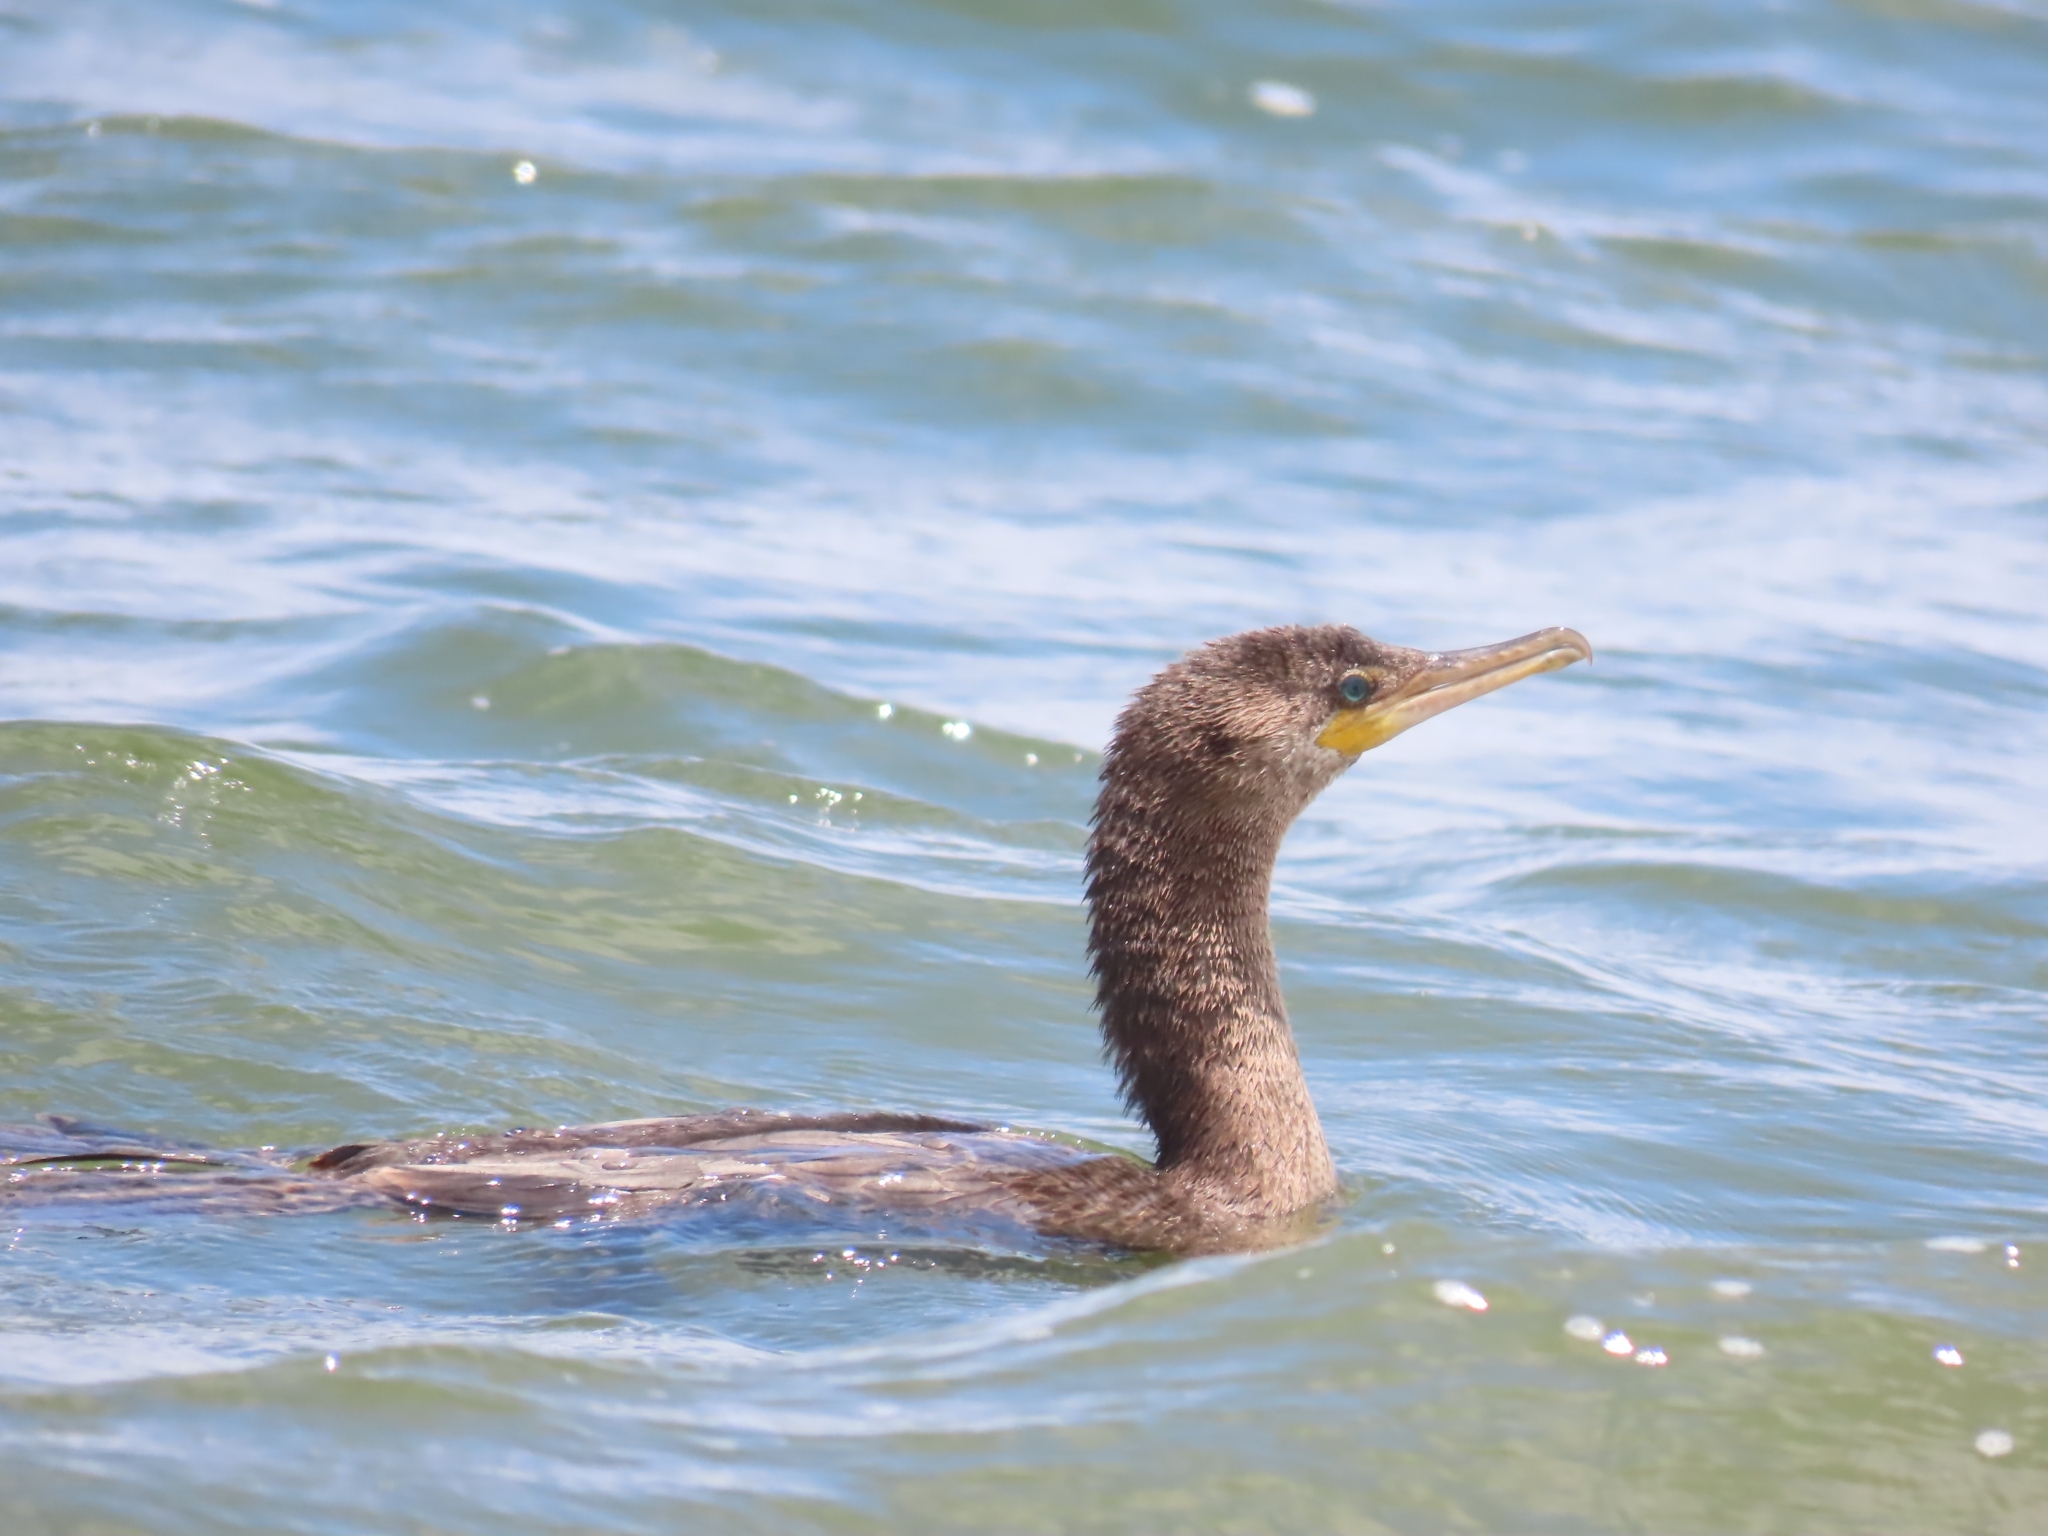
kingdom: Animalia
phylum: Chordata
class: Aves
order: Suliformes
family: Phalacrocoracidae
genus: Phalacrocorax
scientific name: Phalacrocorax brasilianus
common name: Neotropic cormorant
